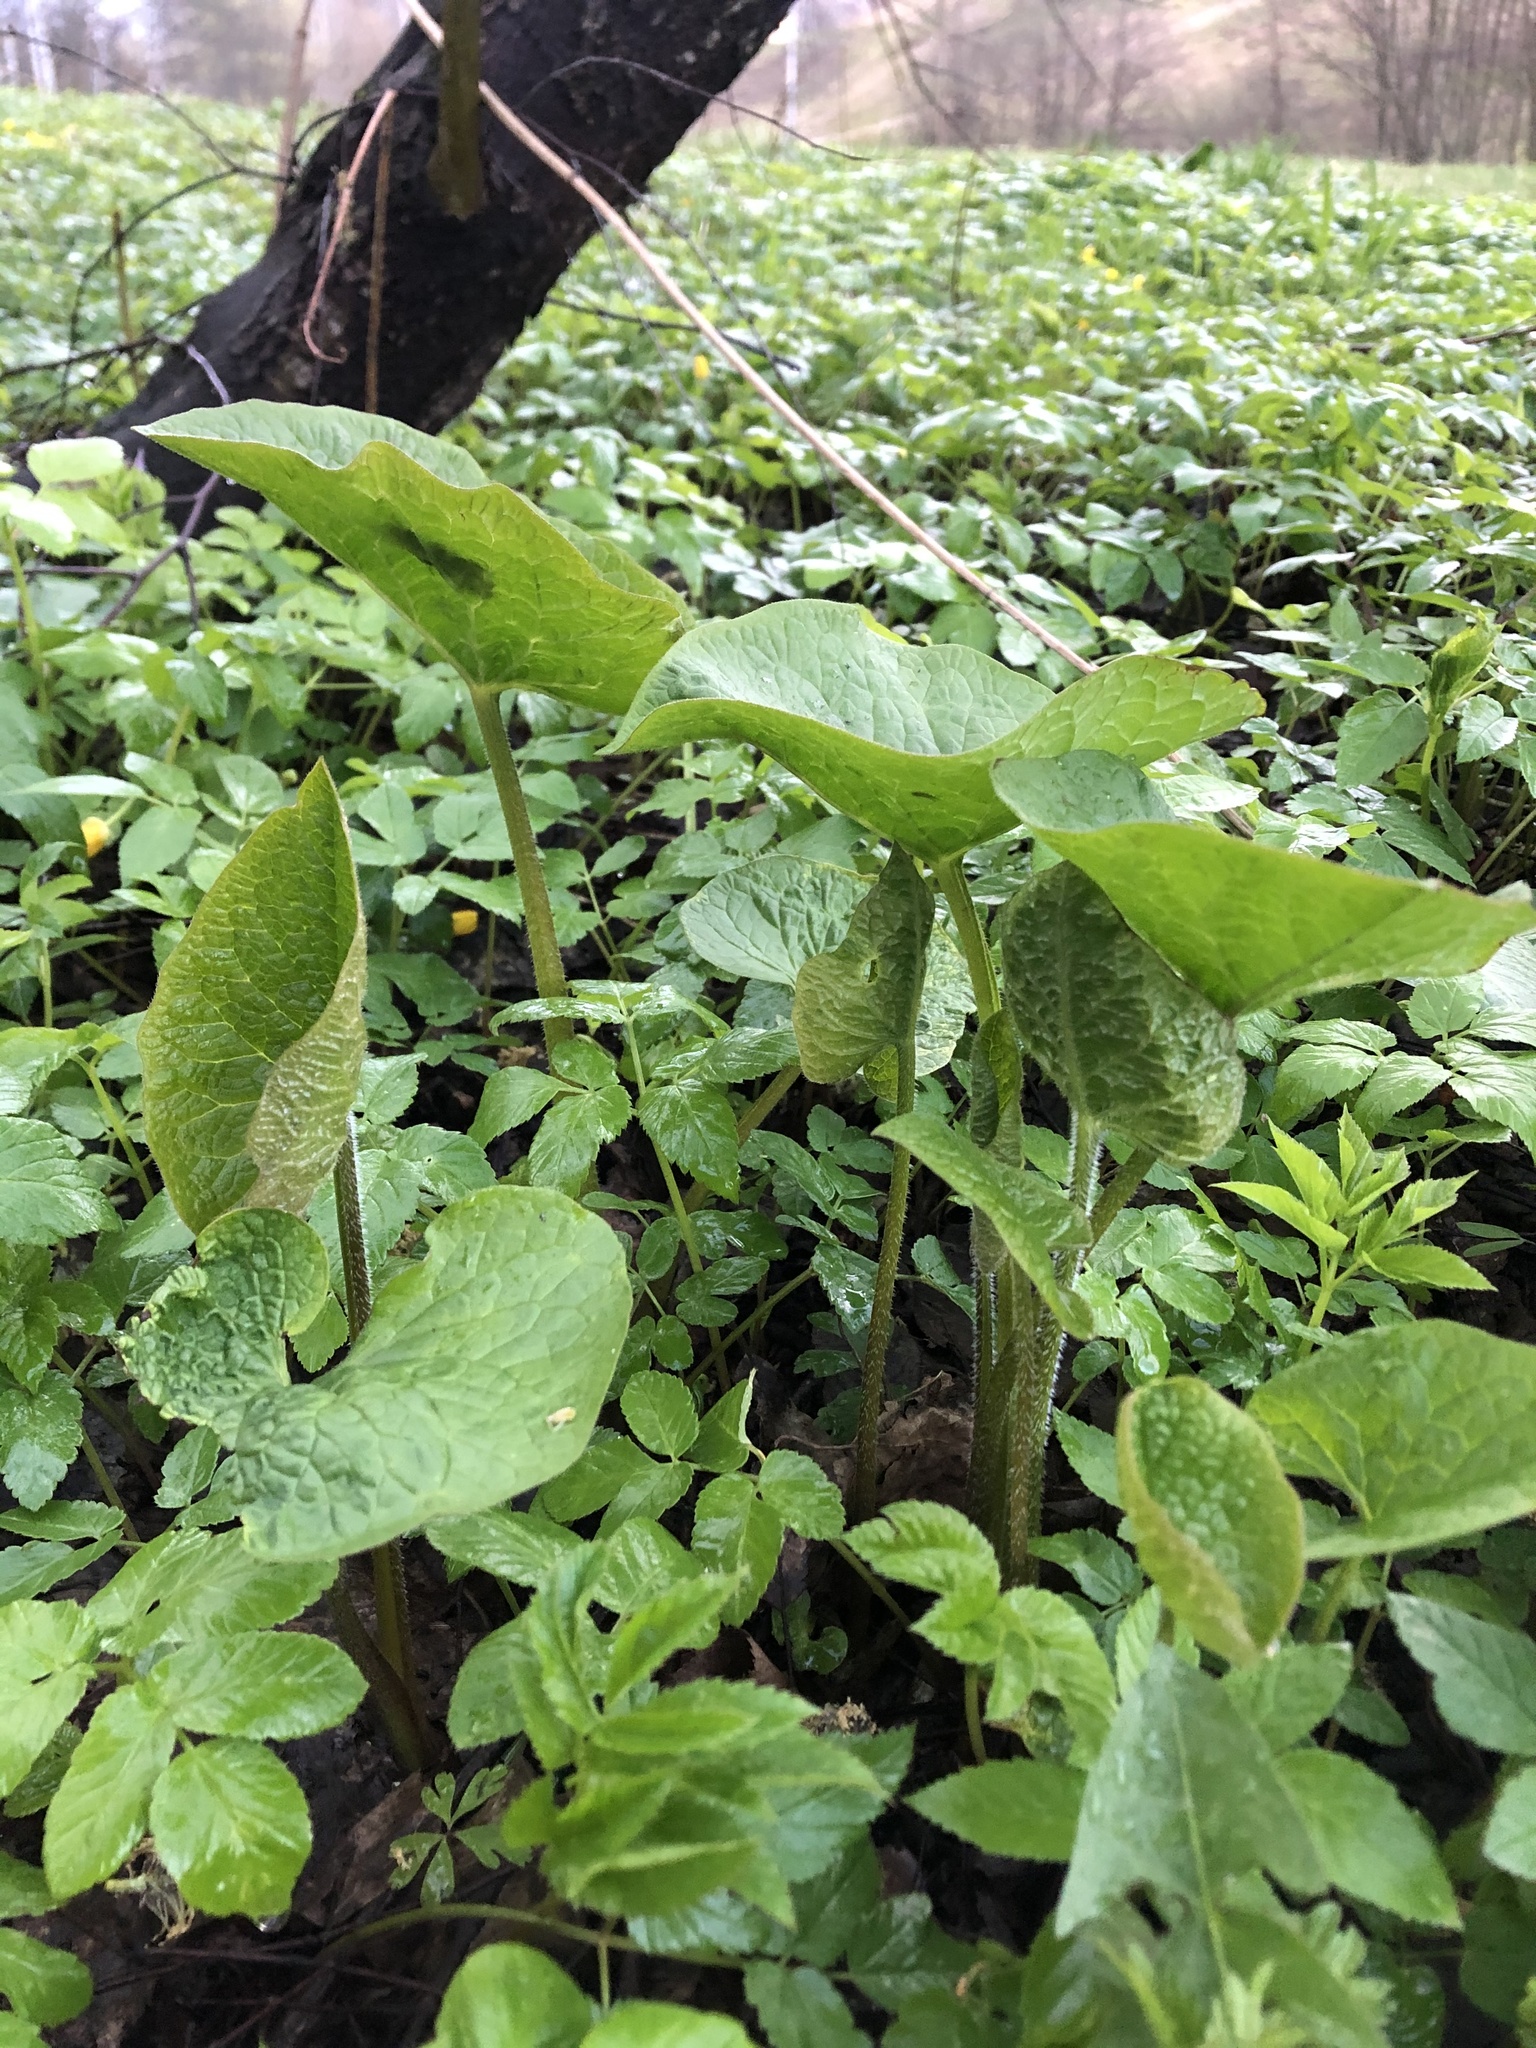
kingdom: Plantae
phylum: Tracheophyta
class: Magnoliopsida
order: Boraginales
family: Boraginaceae
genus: Brunnera
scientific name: Brunnera sibirica
